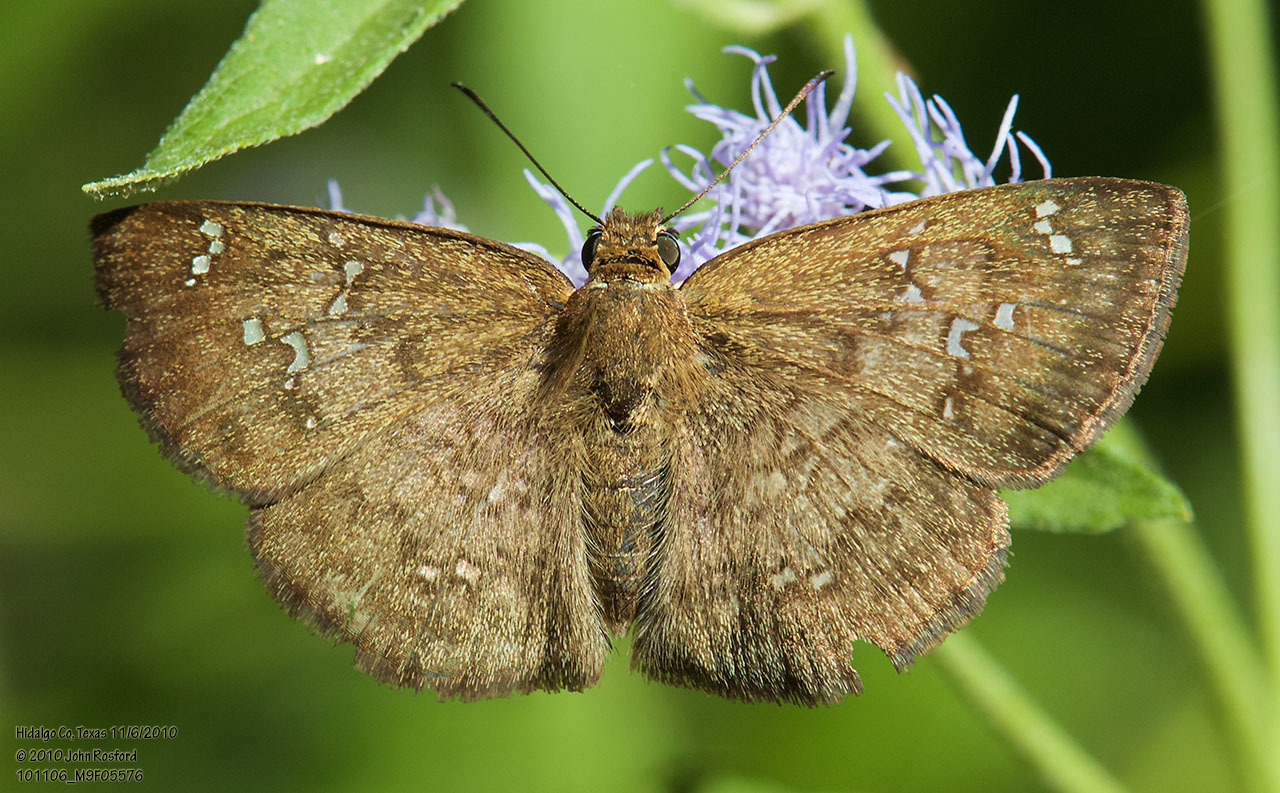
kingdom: Animalia
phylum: Arthropoda
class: Insecta
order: Lepidoptera
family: Hesperiidae
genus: Canesia
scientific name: Canesia canescens
